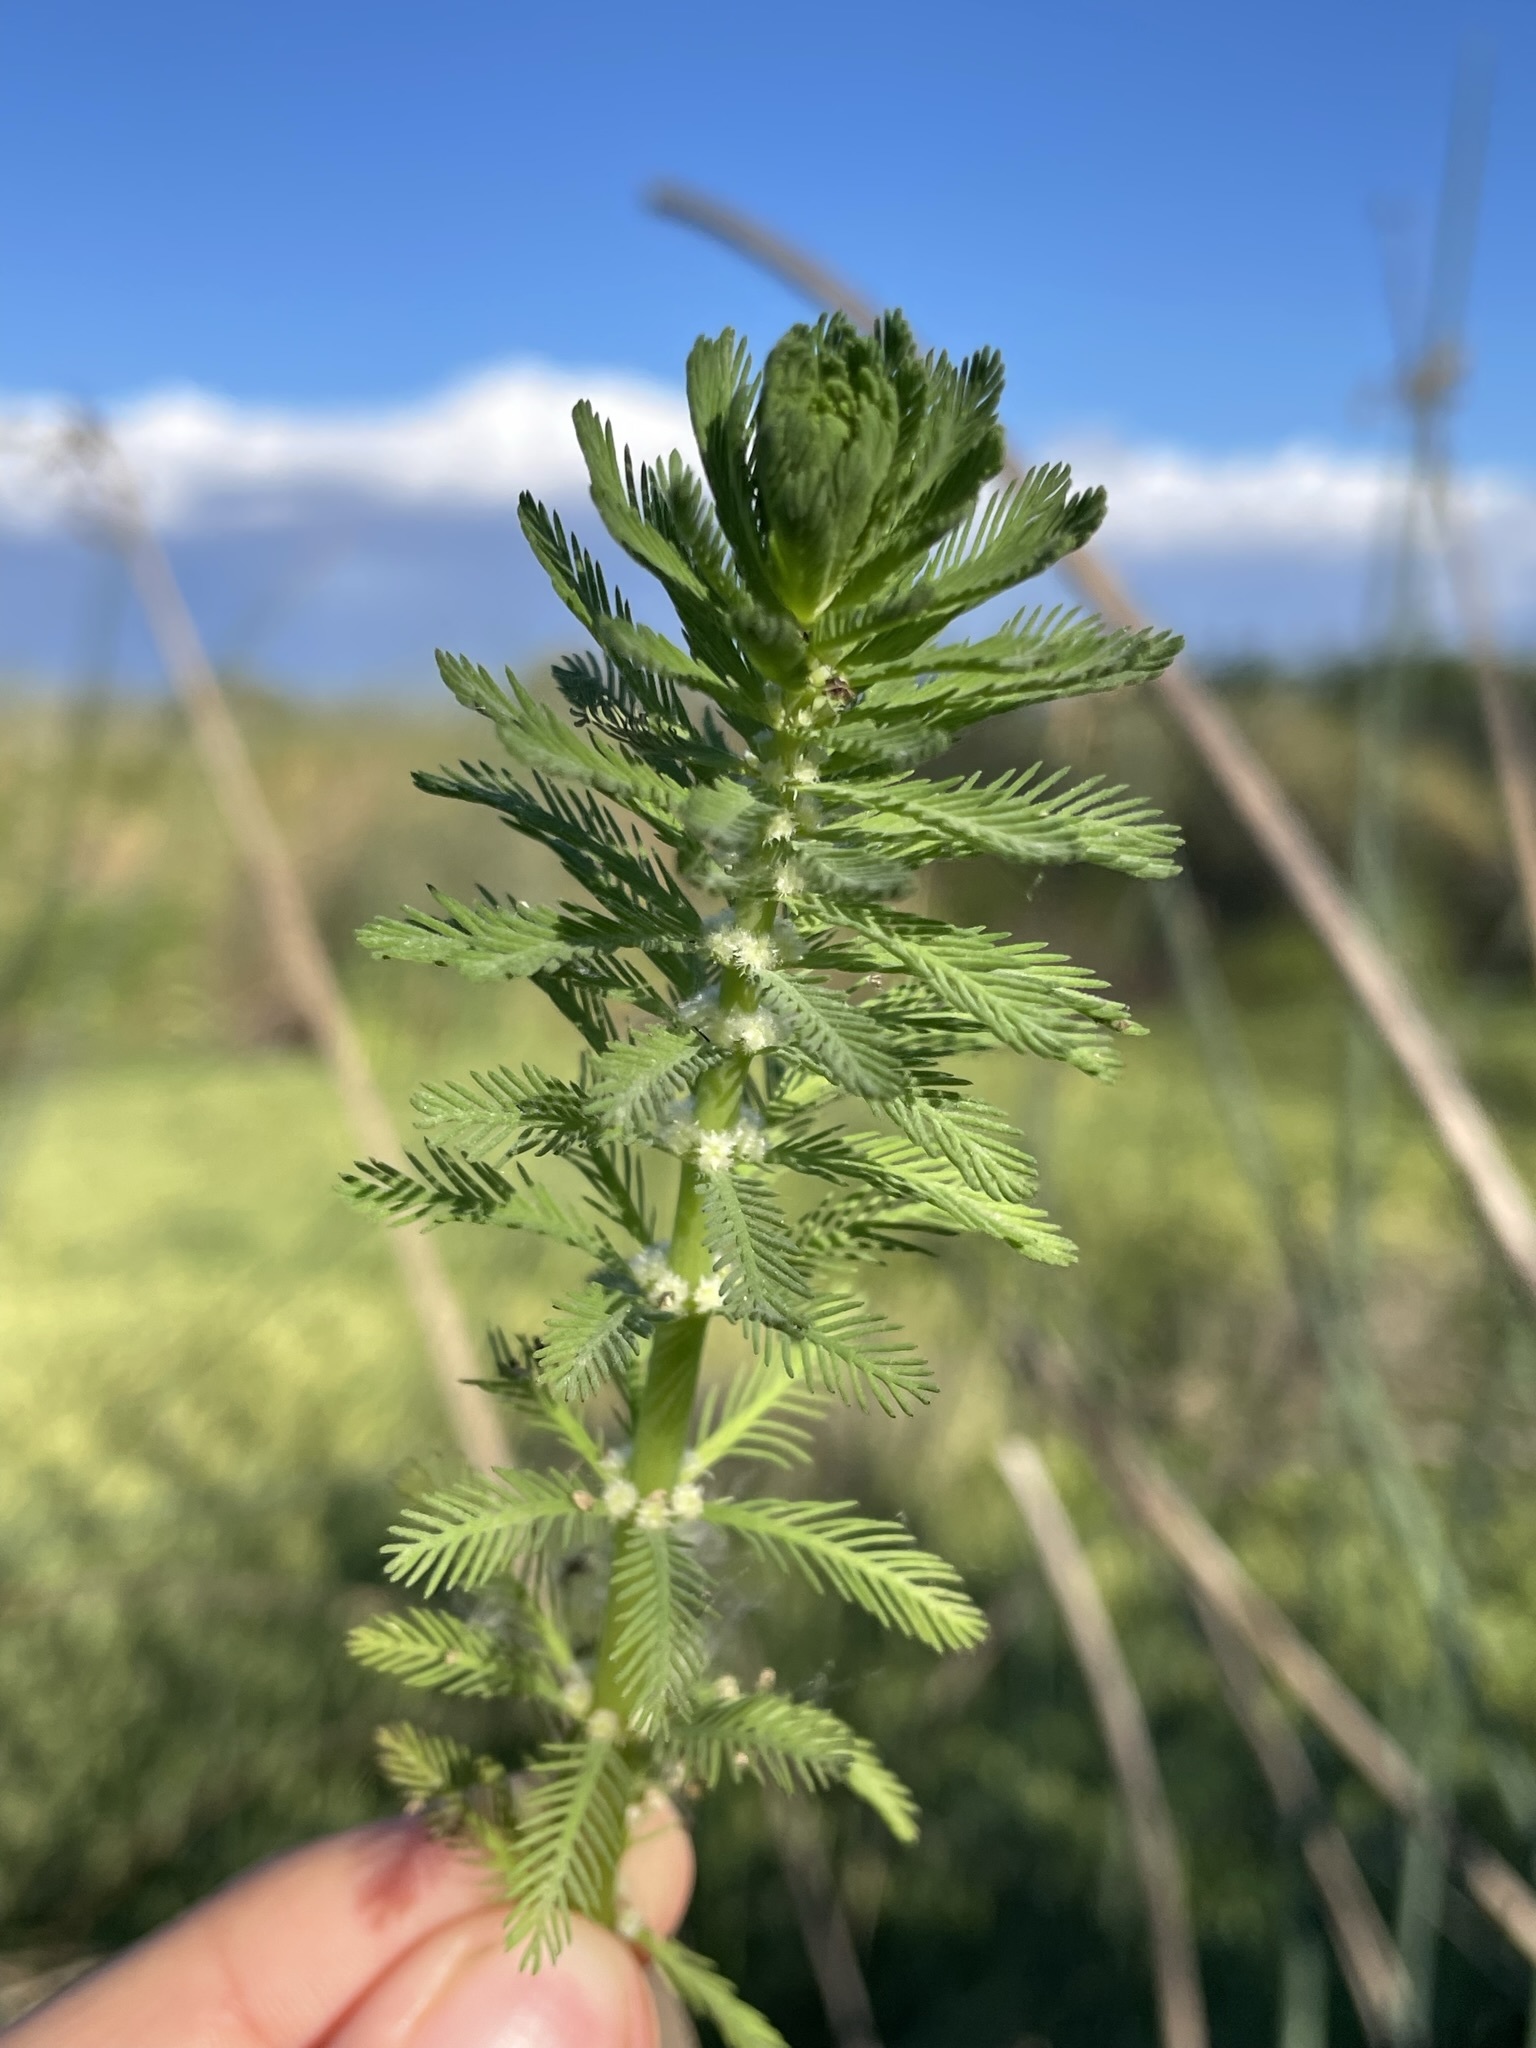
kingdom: Plantae
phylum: Tracheophyta
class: Magnoliopsida
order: Saxifragales
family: Haloragaceae
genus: Myriophyllum
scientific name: Myriophyllum aquaticum
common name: Parrot's feather
